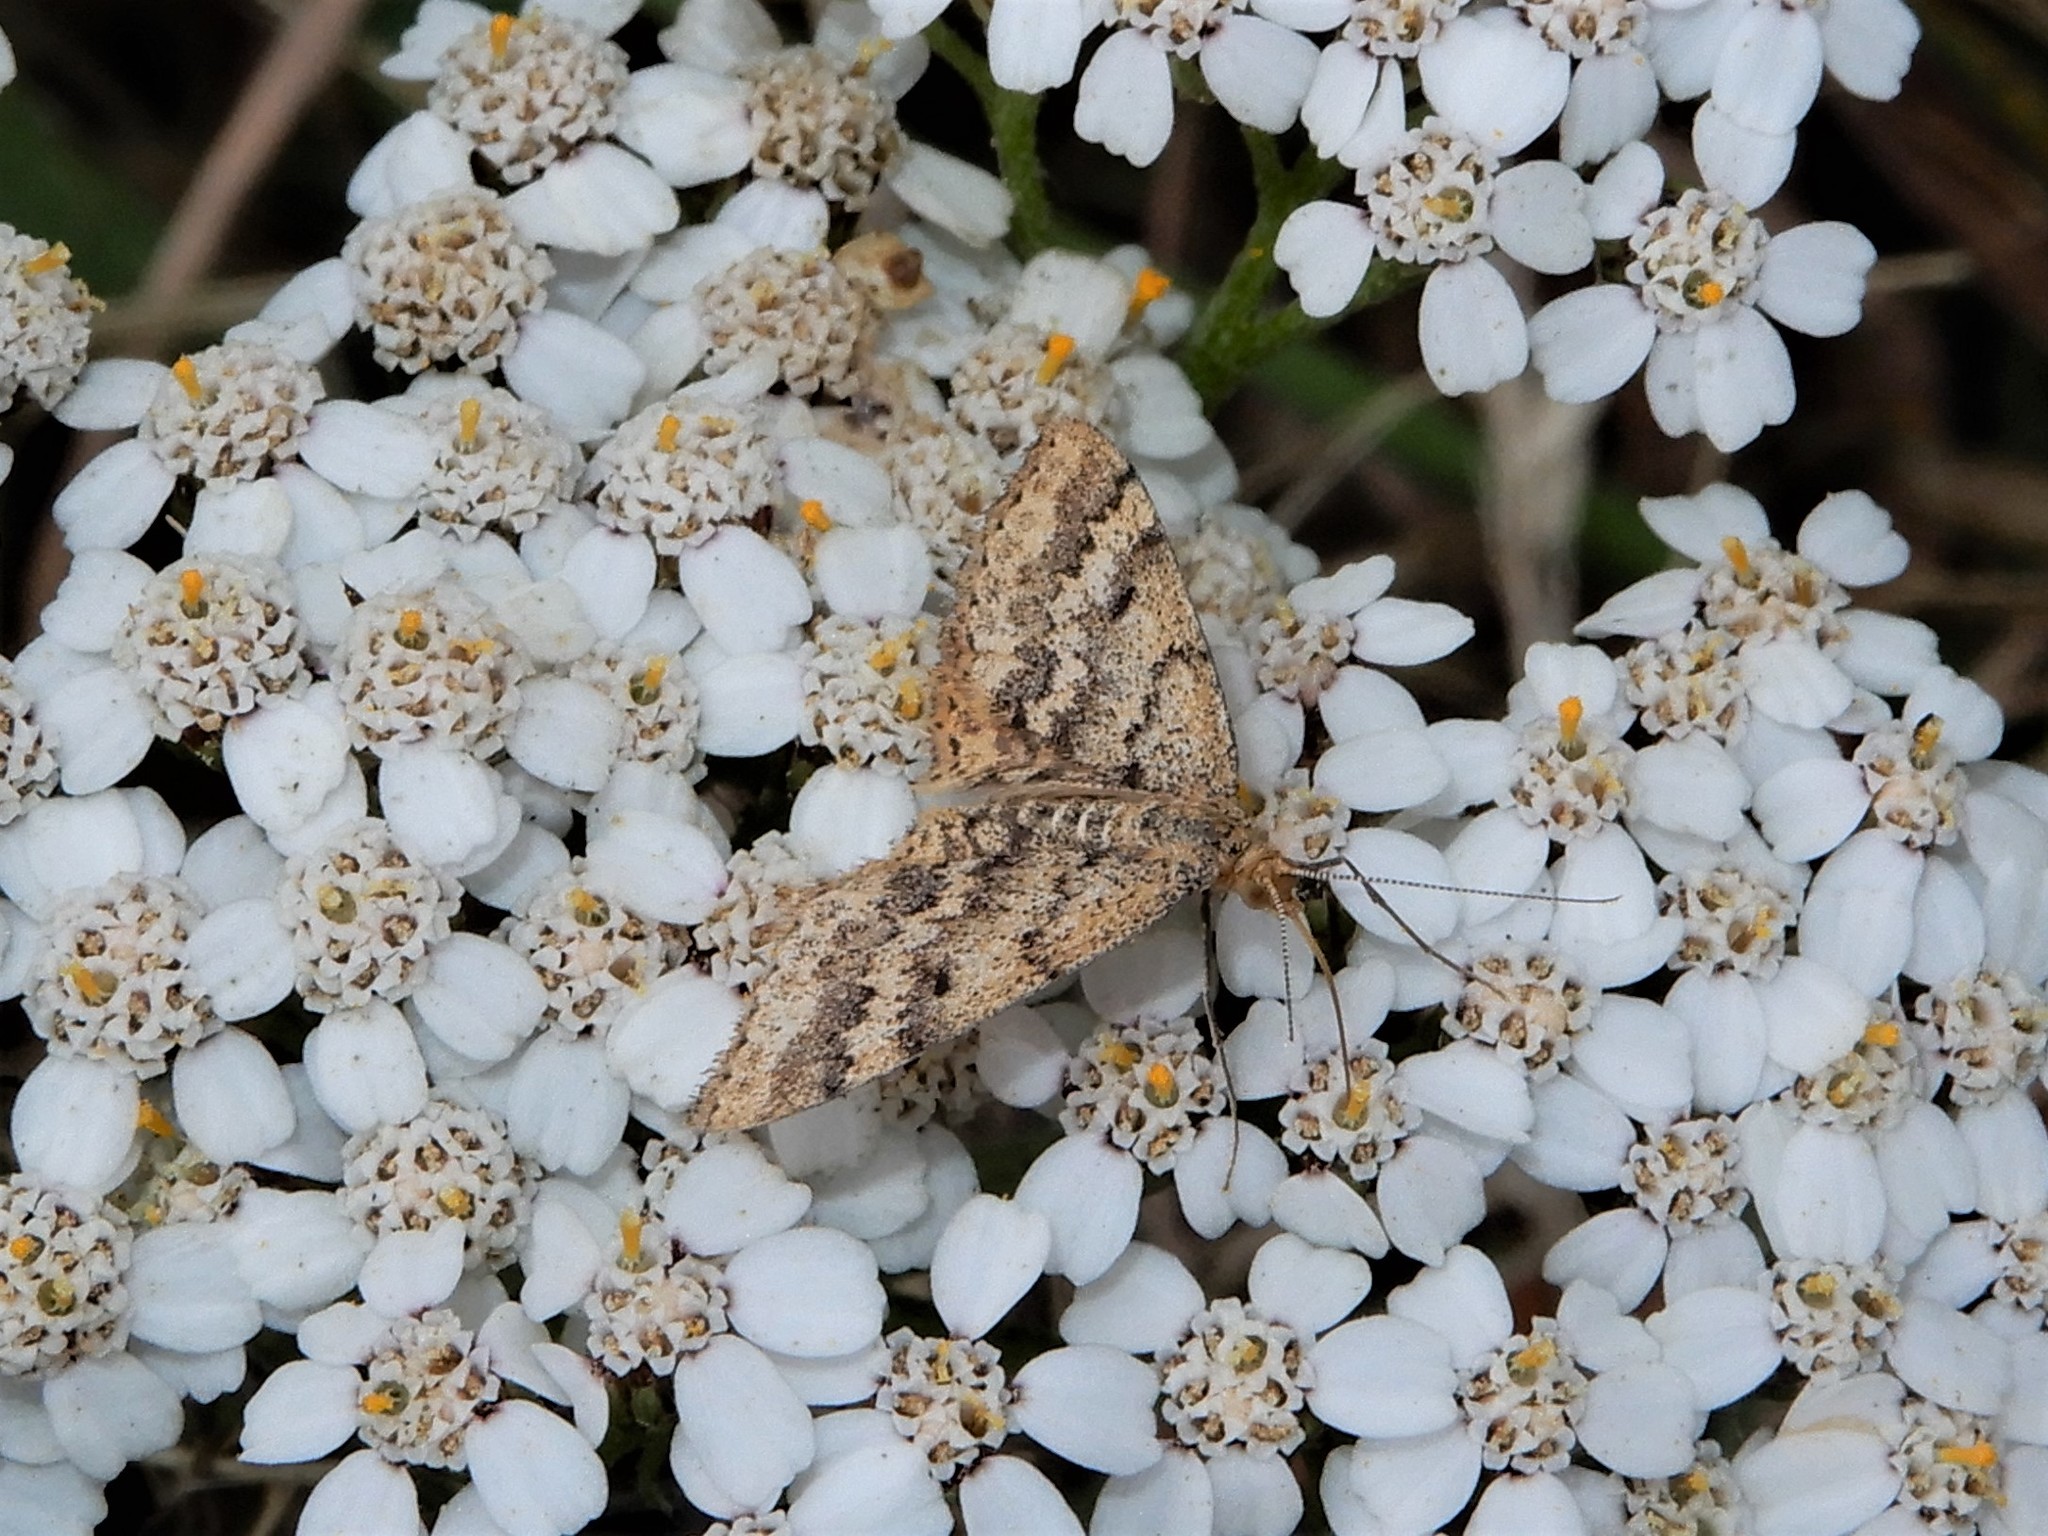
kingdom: Animalia
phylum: Arthropoda
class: Insecta
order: Lepidoptera
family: Geometridae
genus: Scopula
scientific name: Scopula rubraria
